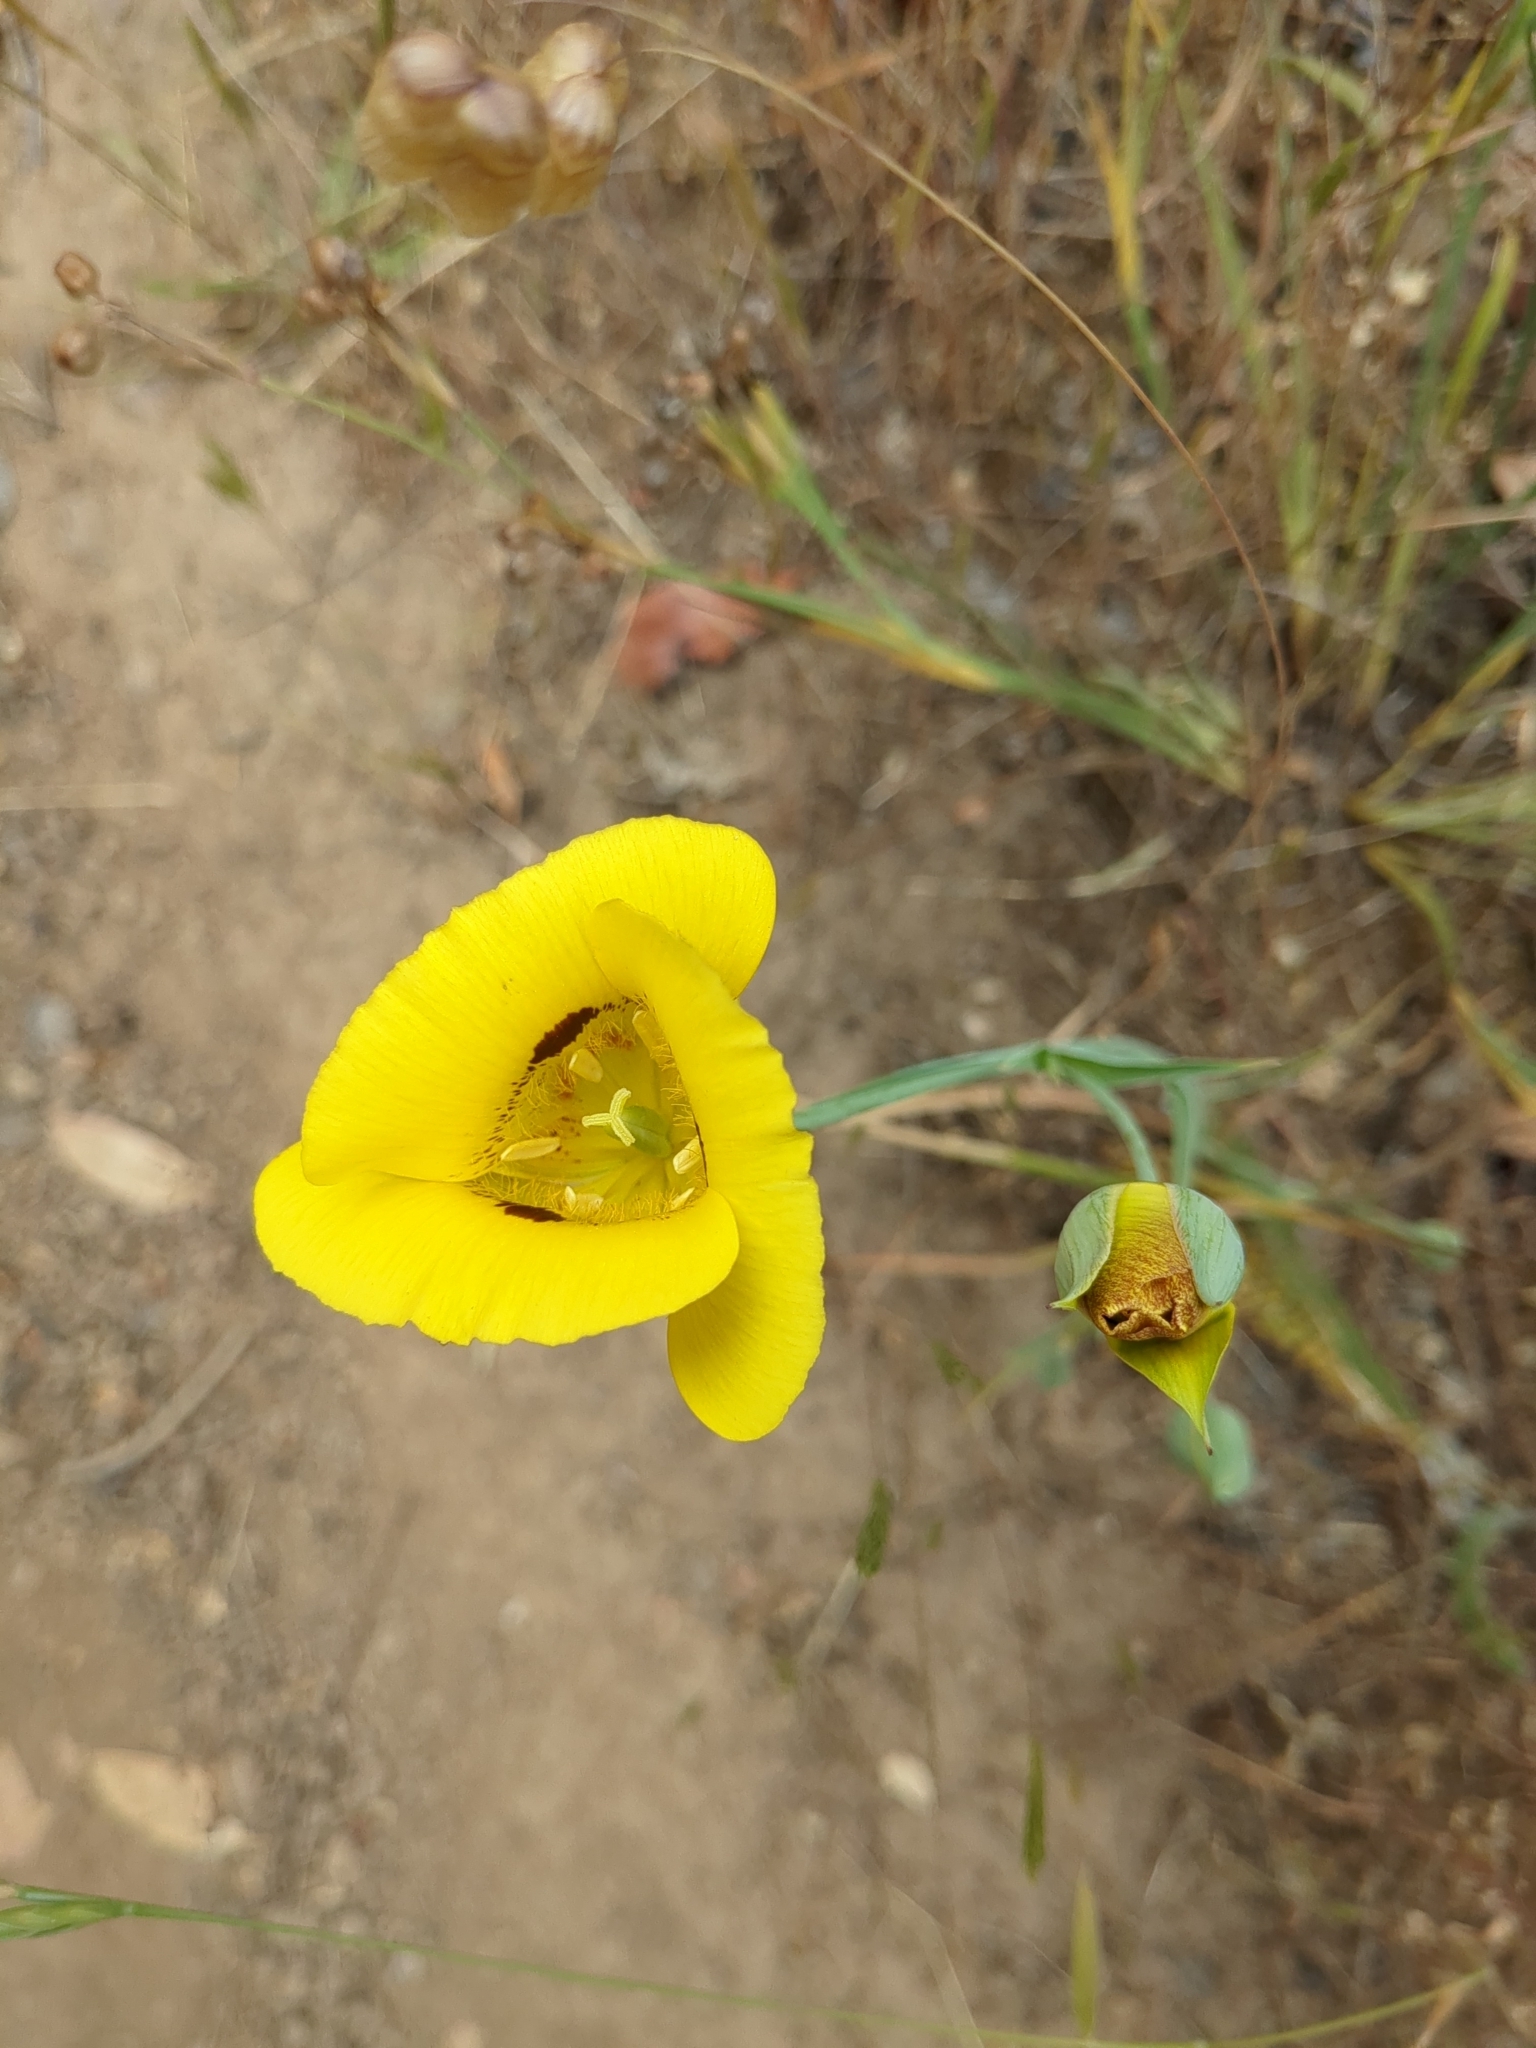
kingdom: Plantae
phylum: Tracheophyta
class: Liliopsida
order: Liliales
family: Liliaceae
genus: Calochortus
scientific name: Calochortus luteus
